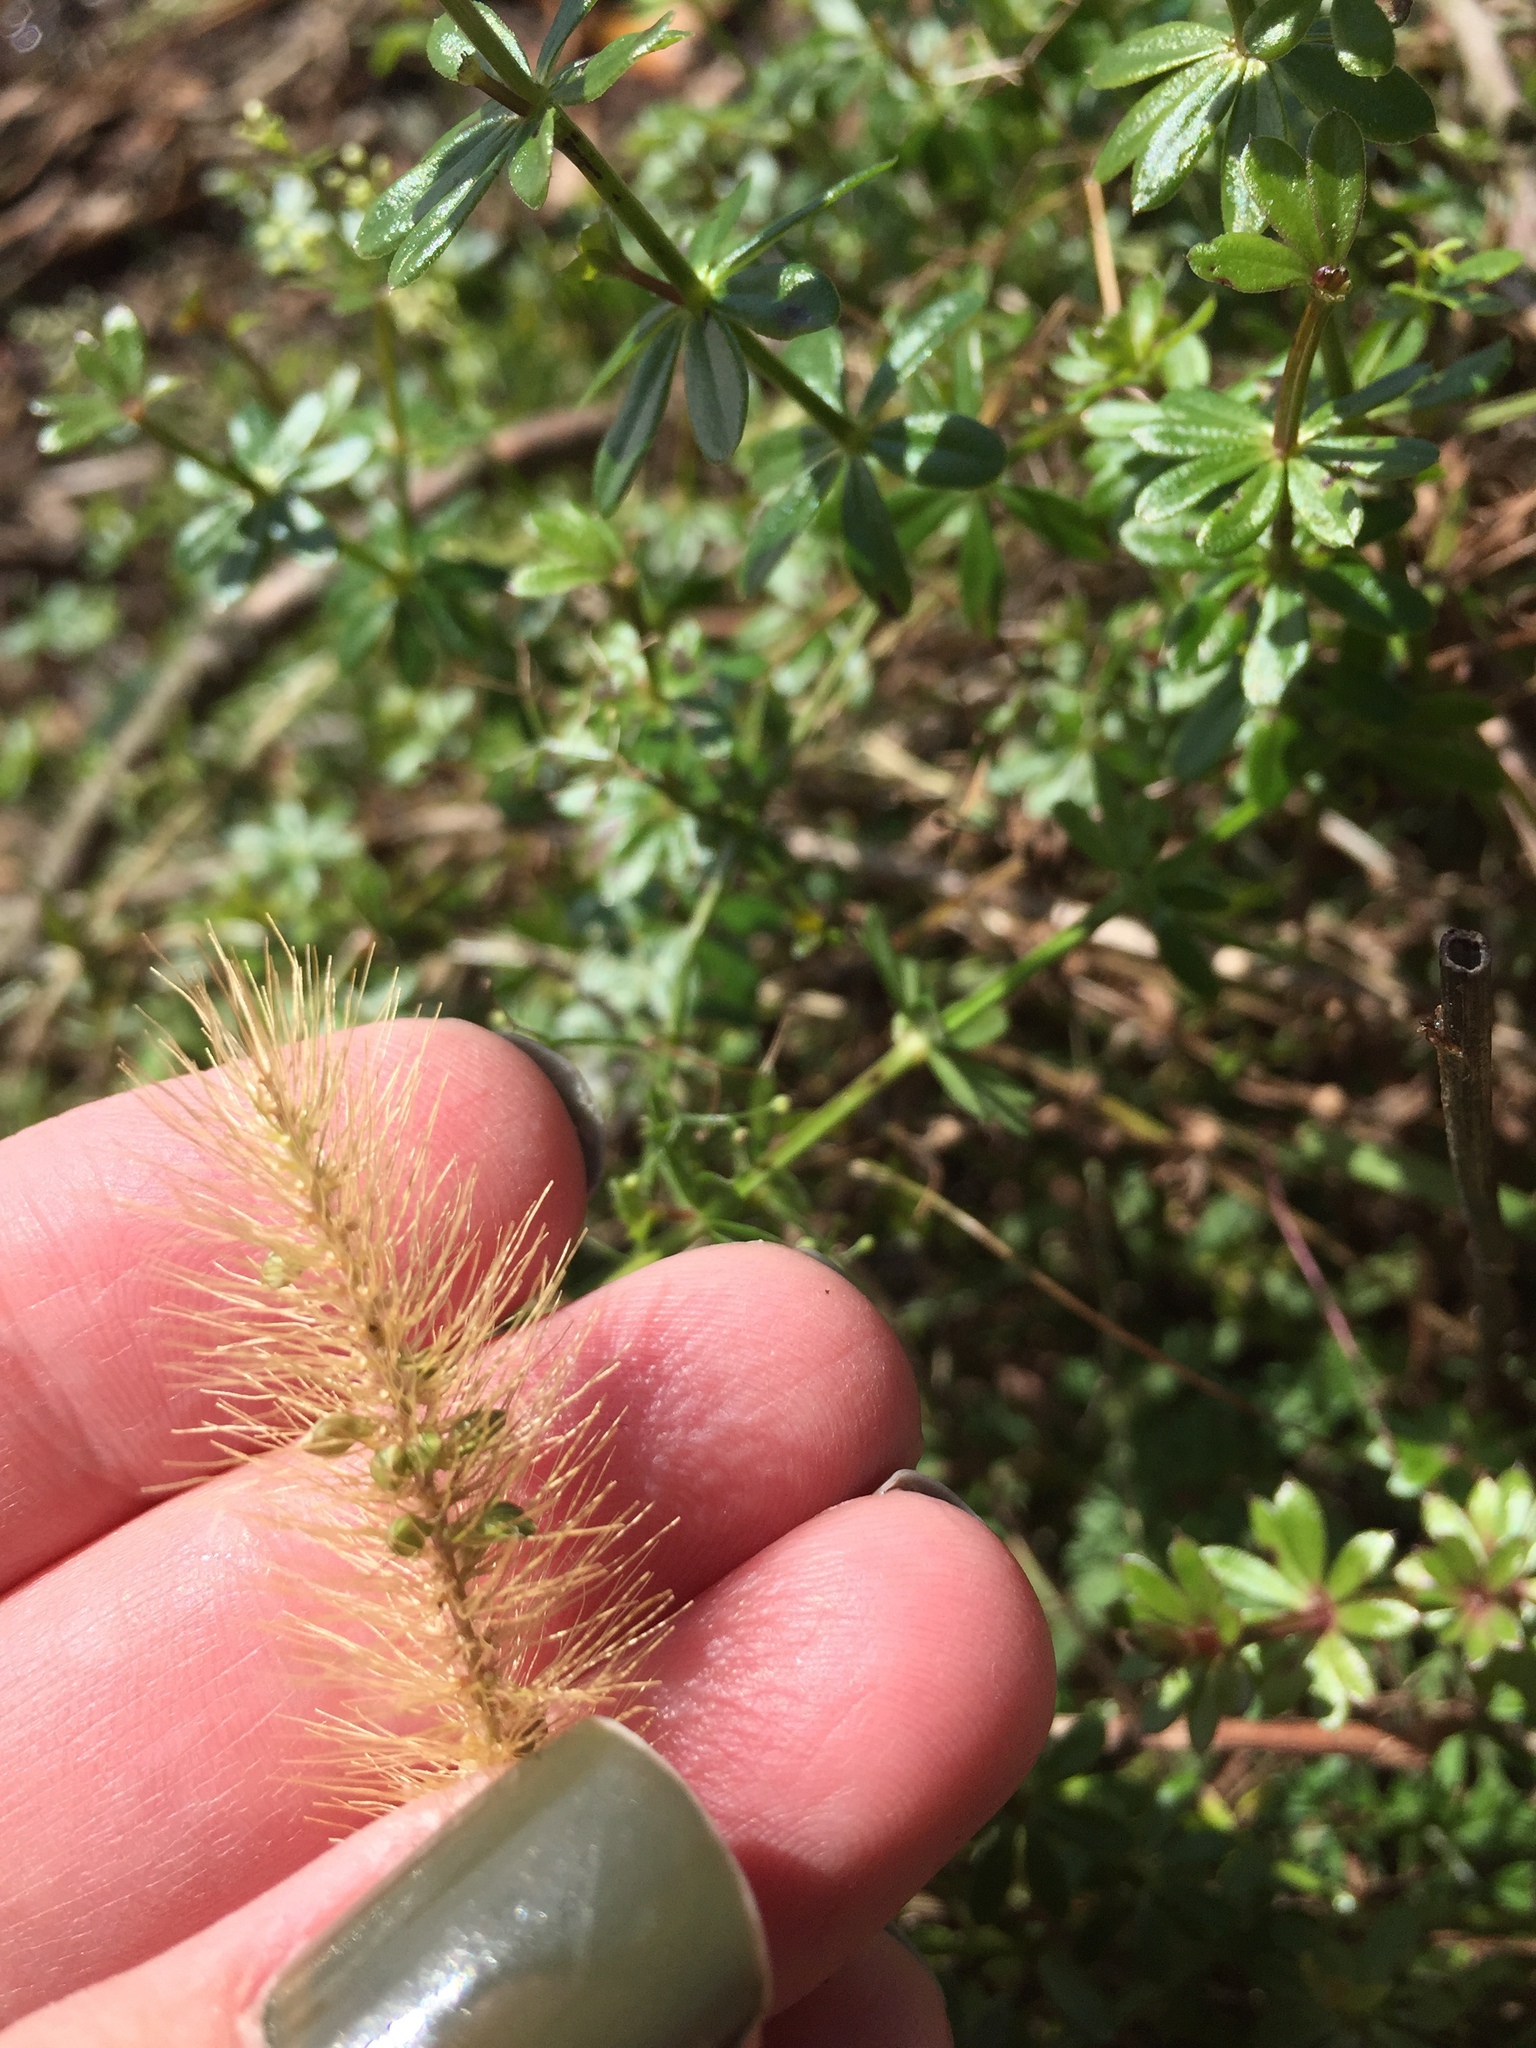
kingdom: Plantae
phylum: Tracheophyta
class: Liliopsida
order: Poales
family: Poaceae
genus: Setaria
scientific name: Setaria pumila
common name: Yellow bristle-grass
